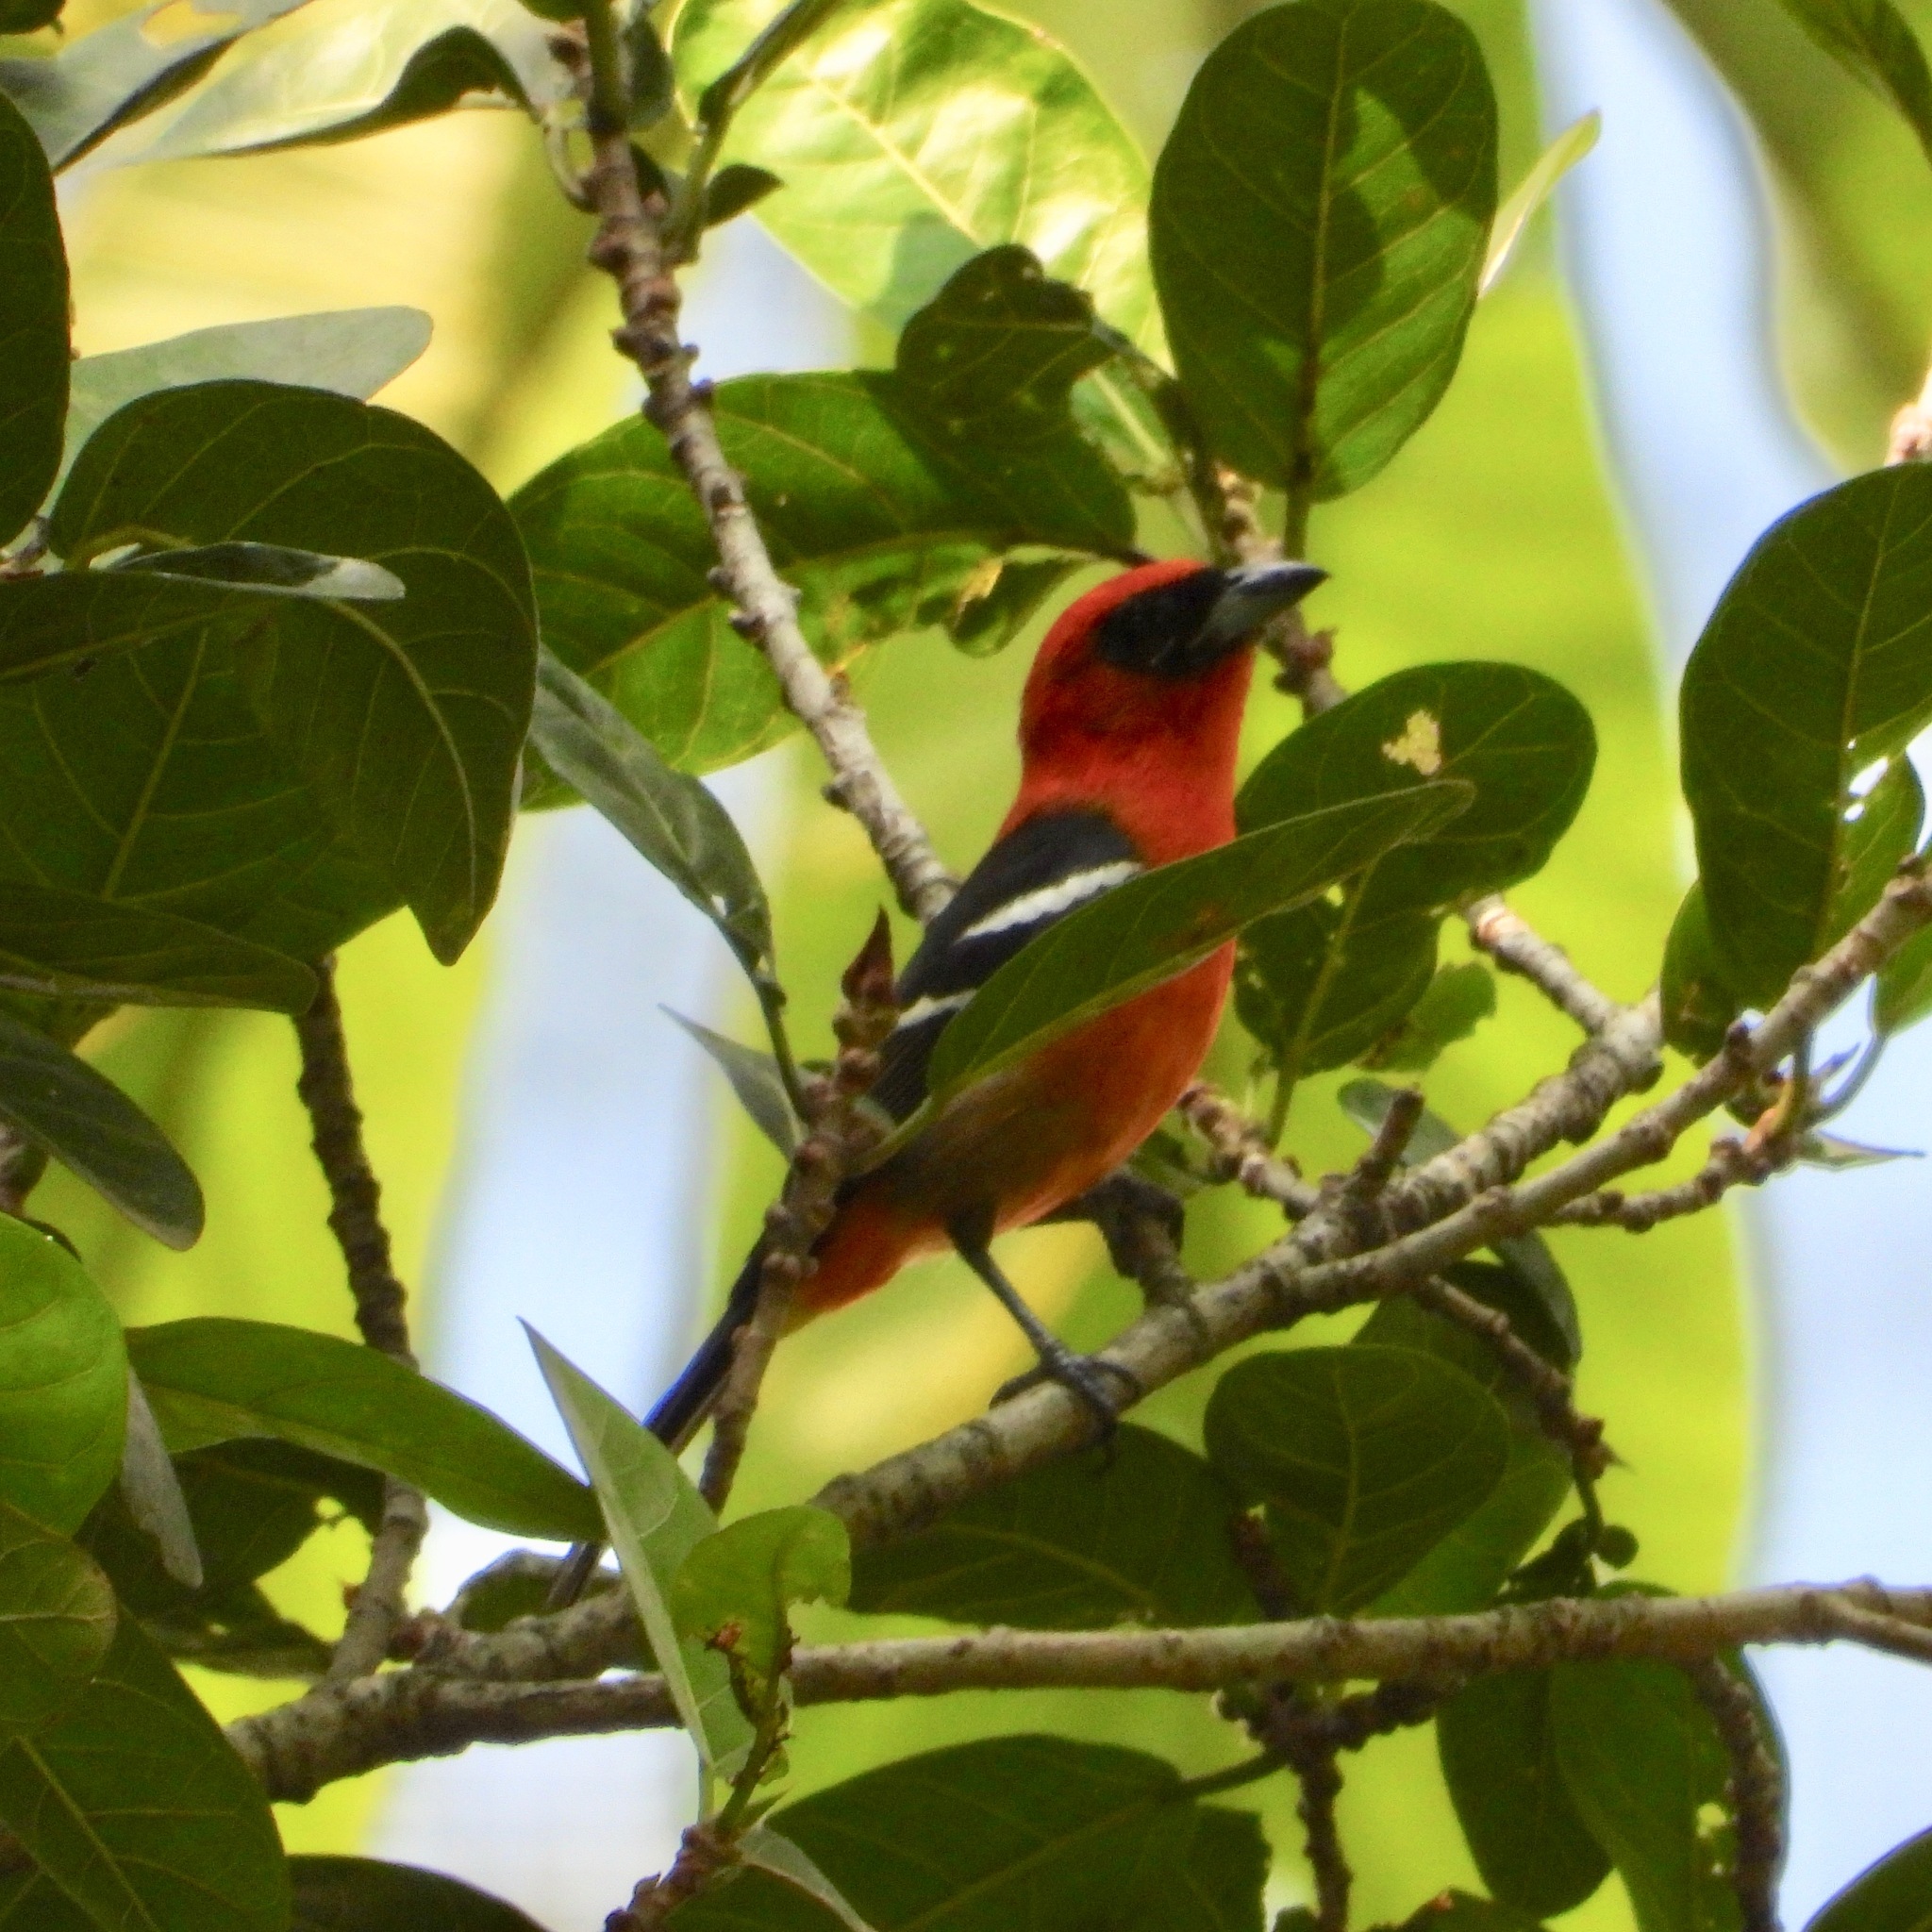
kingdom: Animalia
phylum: Chordata
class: Aves
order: Passeriformes
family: Cardinalidae
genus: Piranga
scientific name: Piranga leucoptera
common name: White-winged tanager
